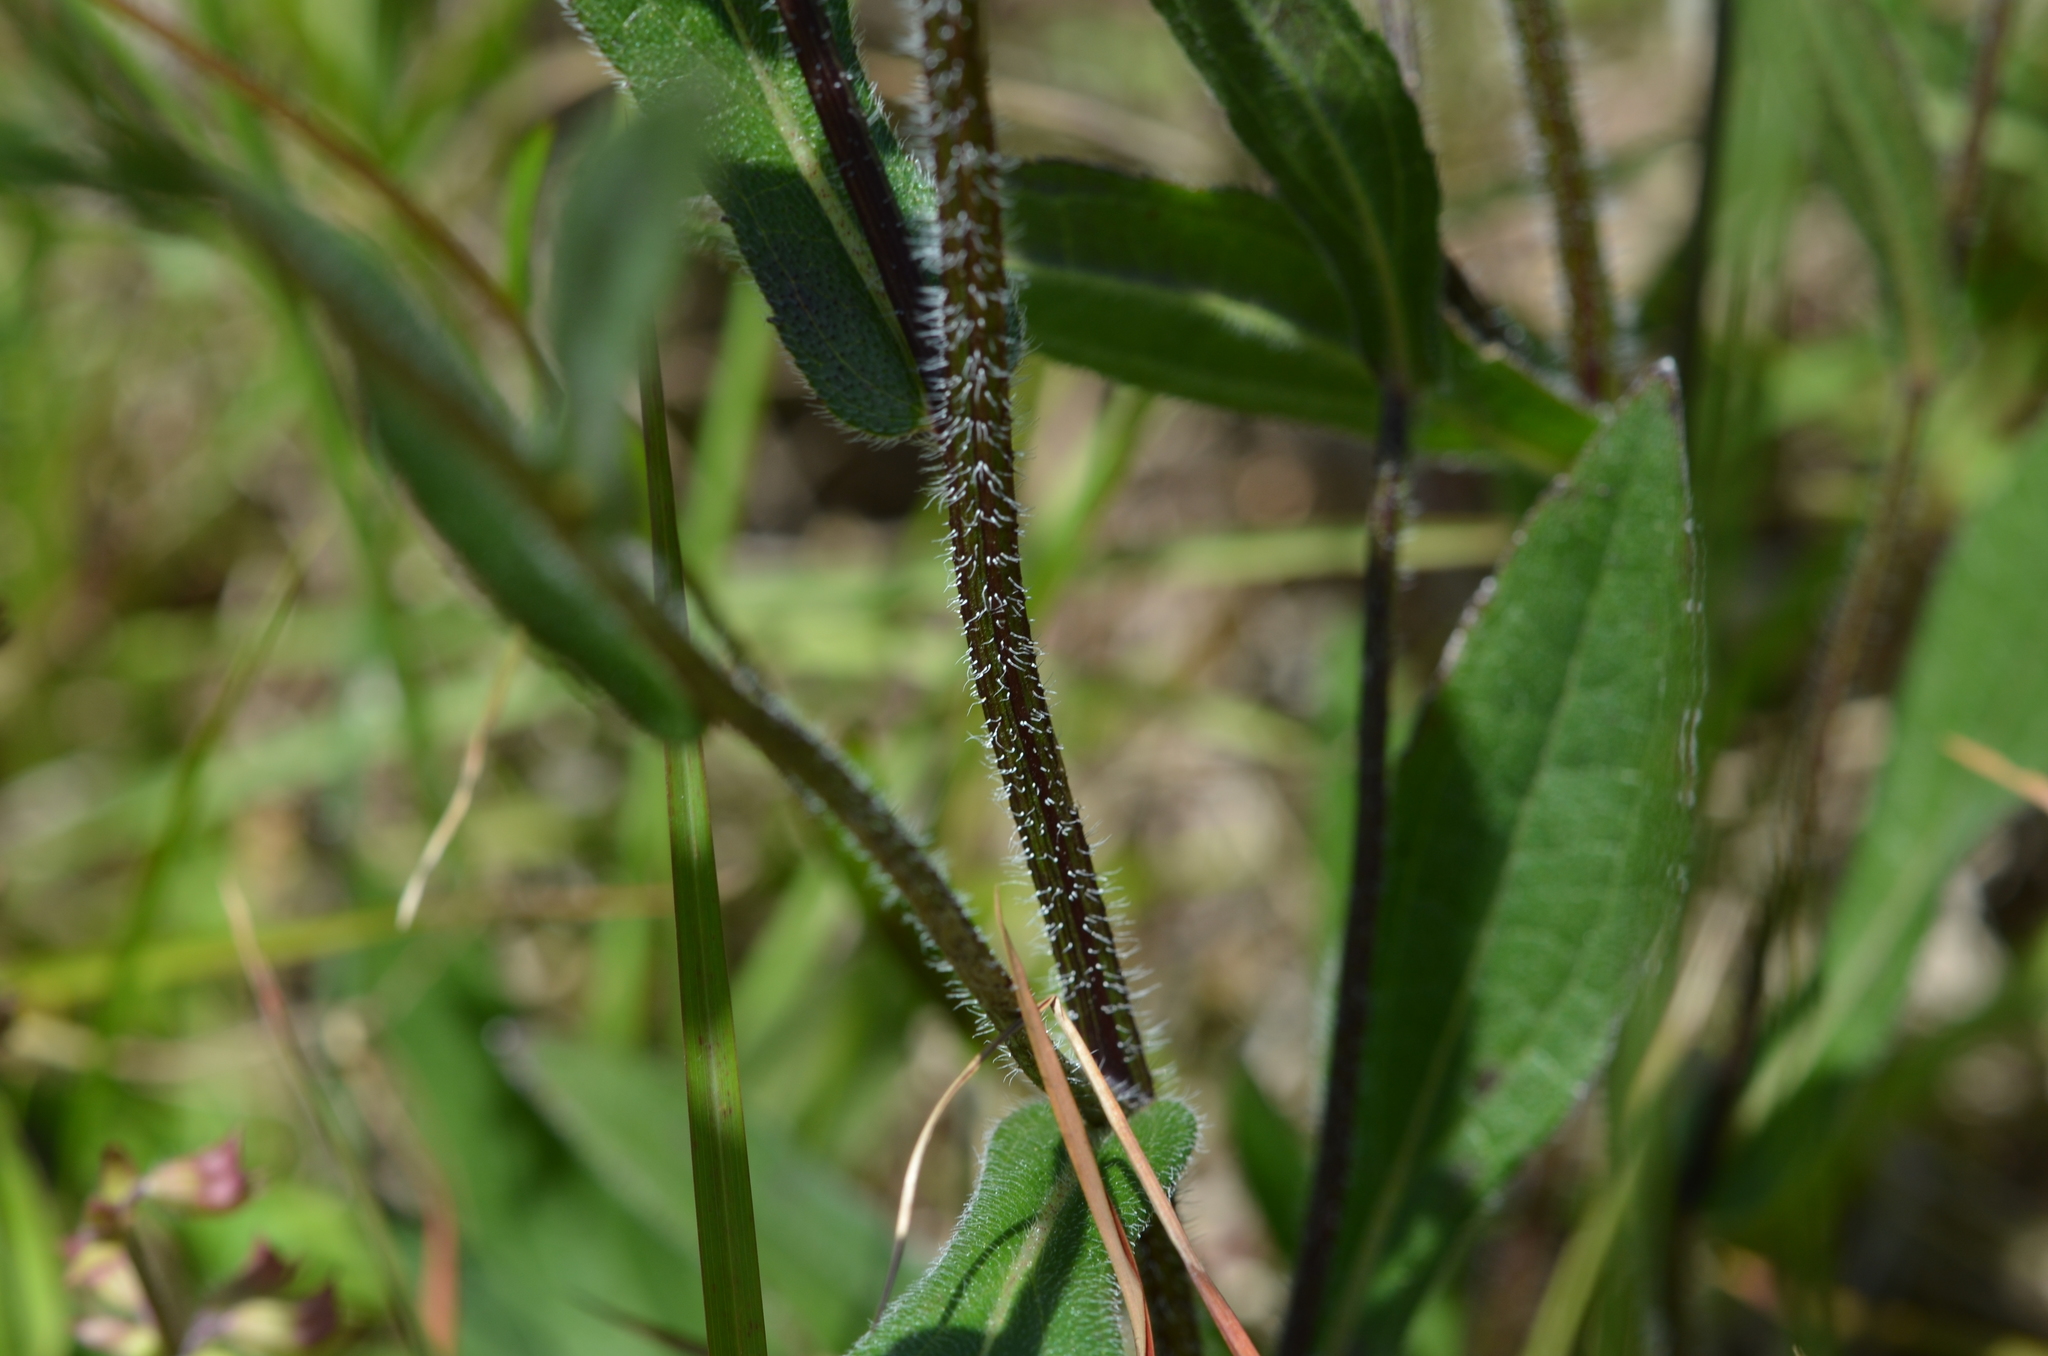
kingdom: Plantae
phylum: Tracheophyta
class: Magnoliopsida
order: Asterales
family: Asteraceae
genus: Rudbeckia
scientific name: Rudbeckia hirta
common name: Black-eyed-susan
